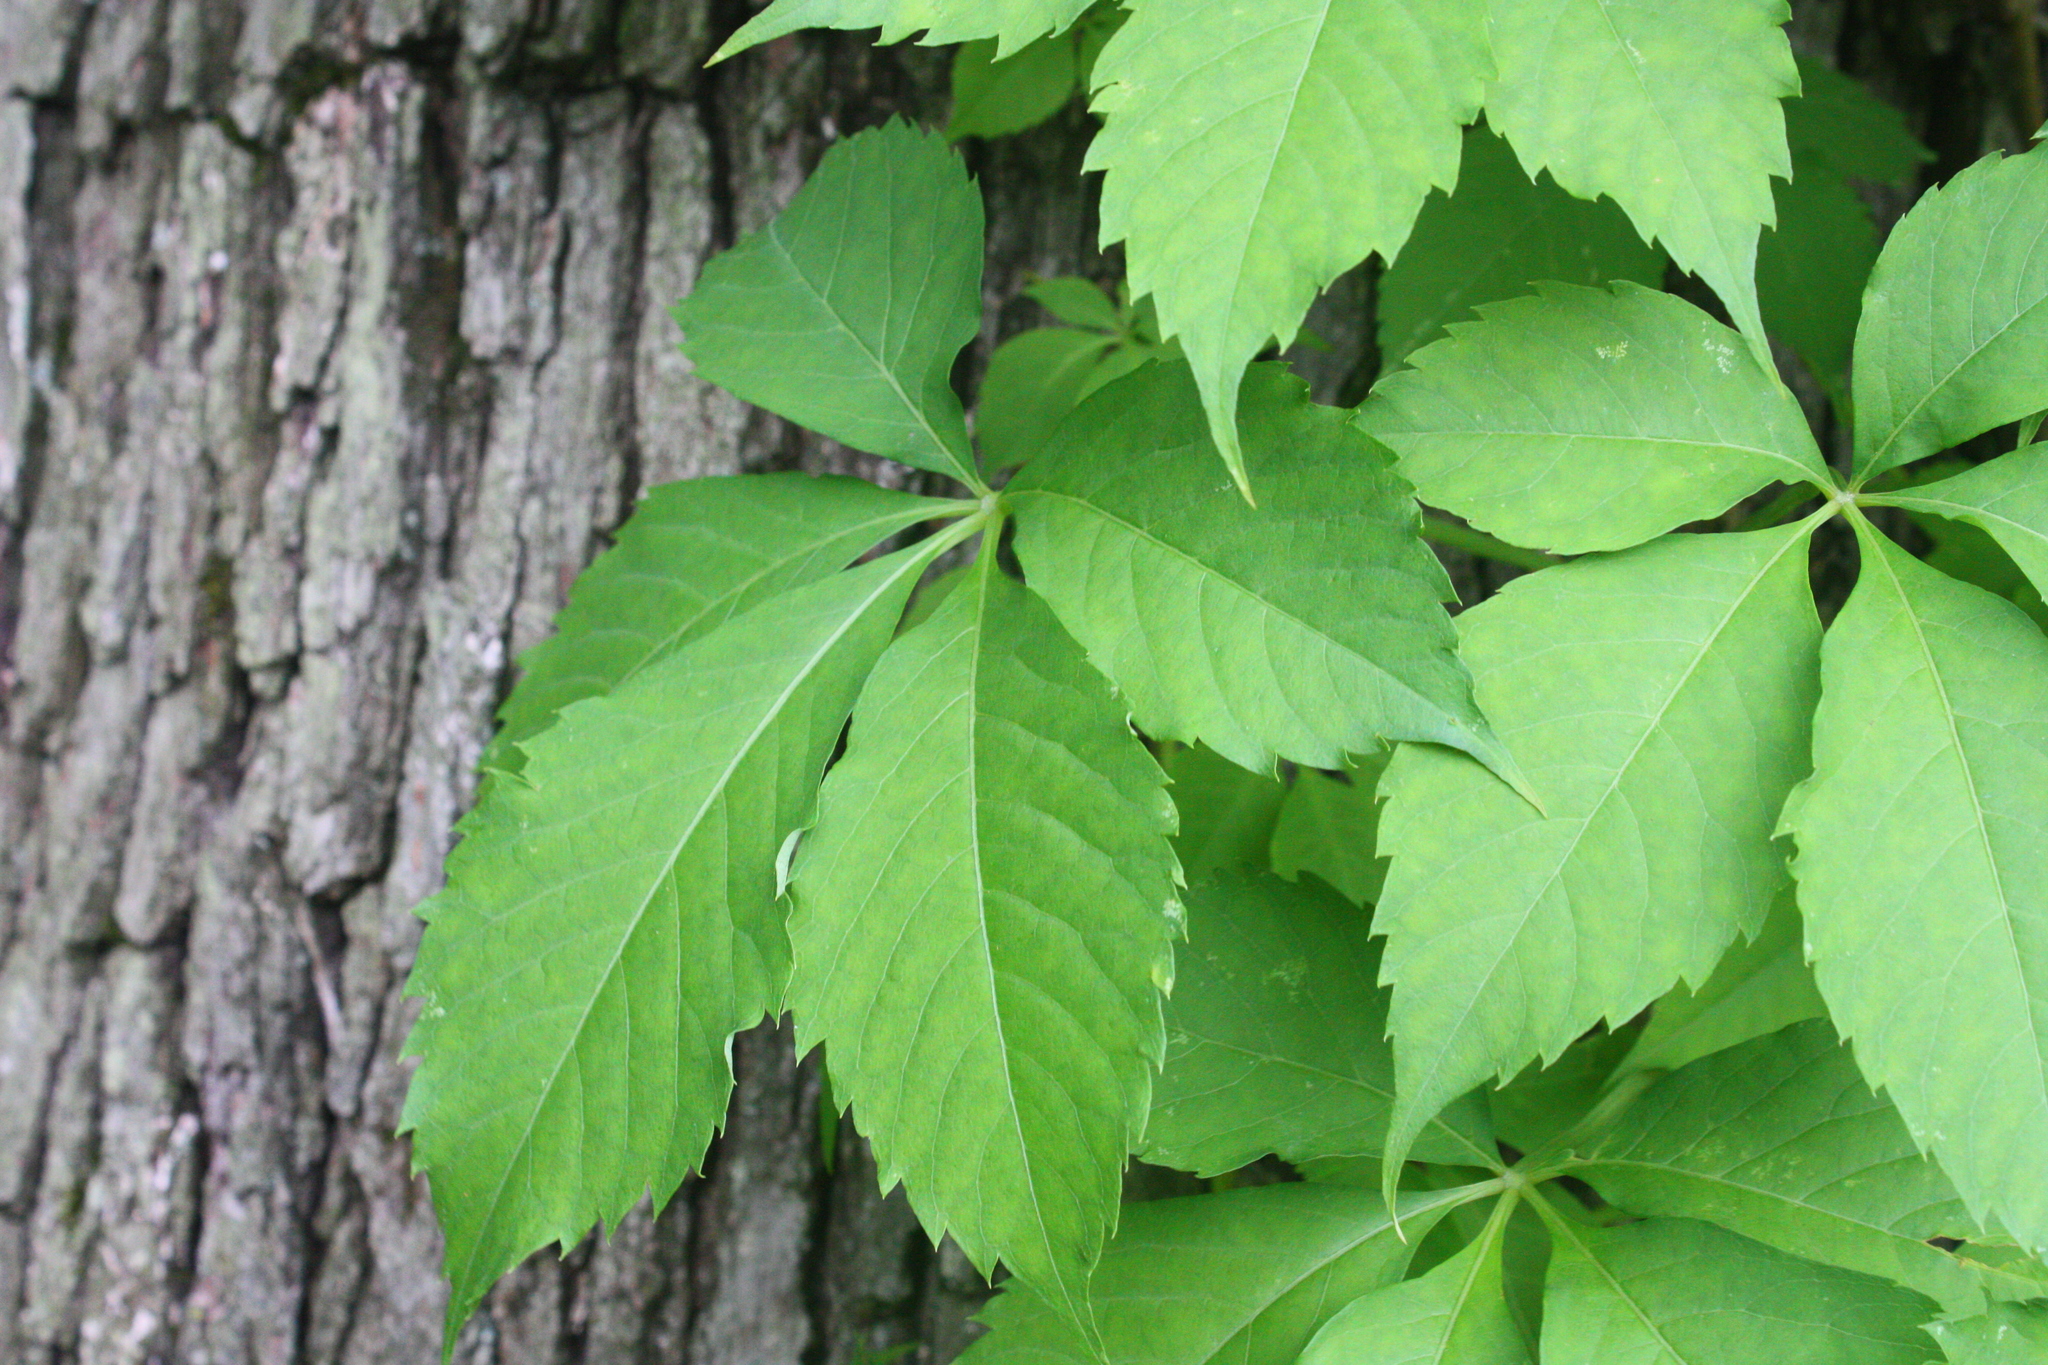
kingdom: Plantae
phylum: Tracheophyta
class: Magnoliopsida
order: Vitales
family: Vitaceae
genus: Parthenocissus
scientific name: Parthenocissus quinquefolia
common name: Virginia-creeper
